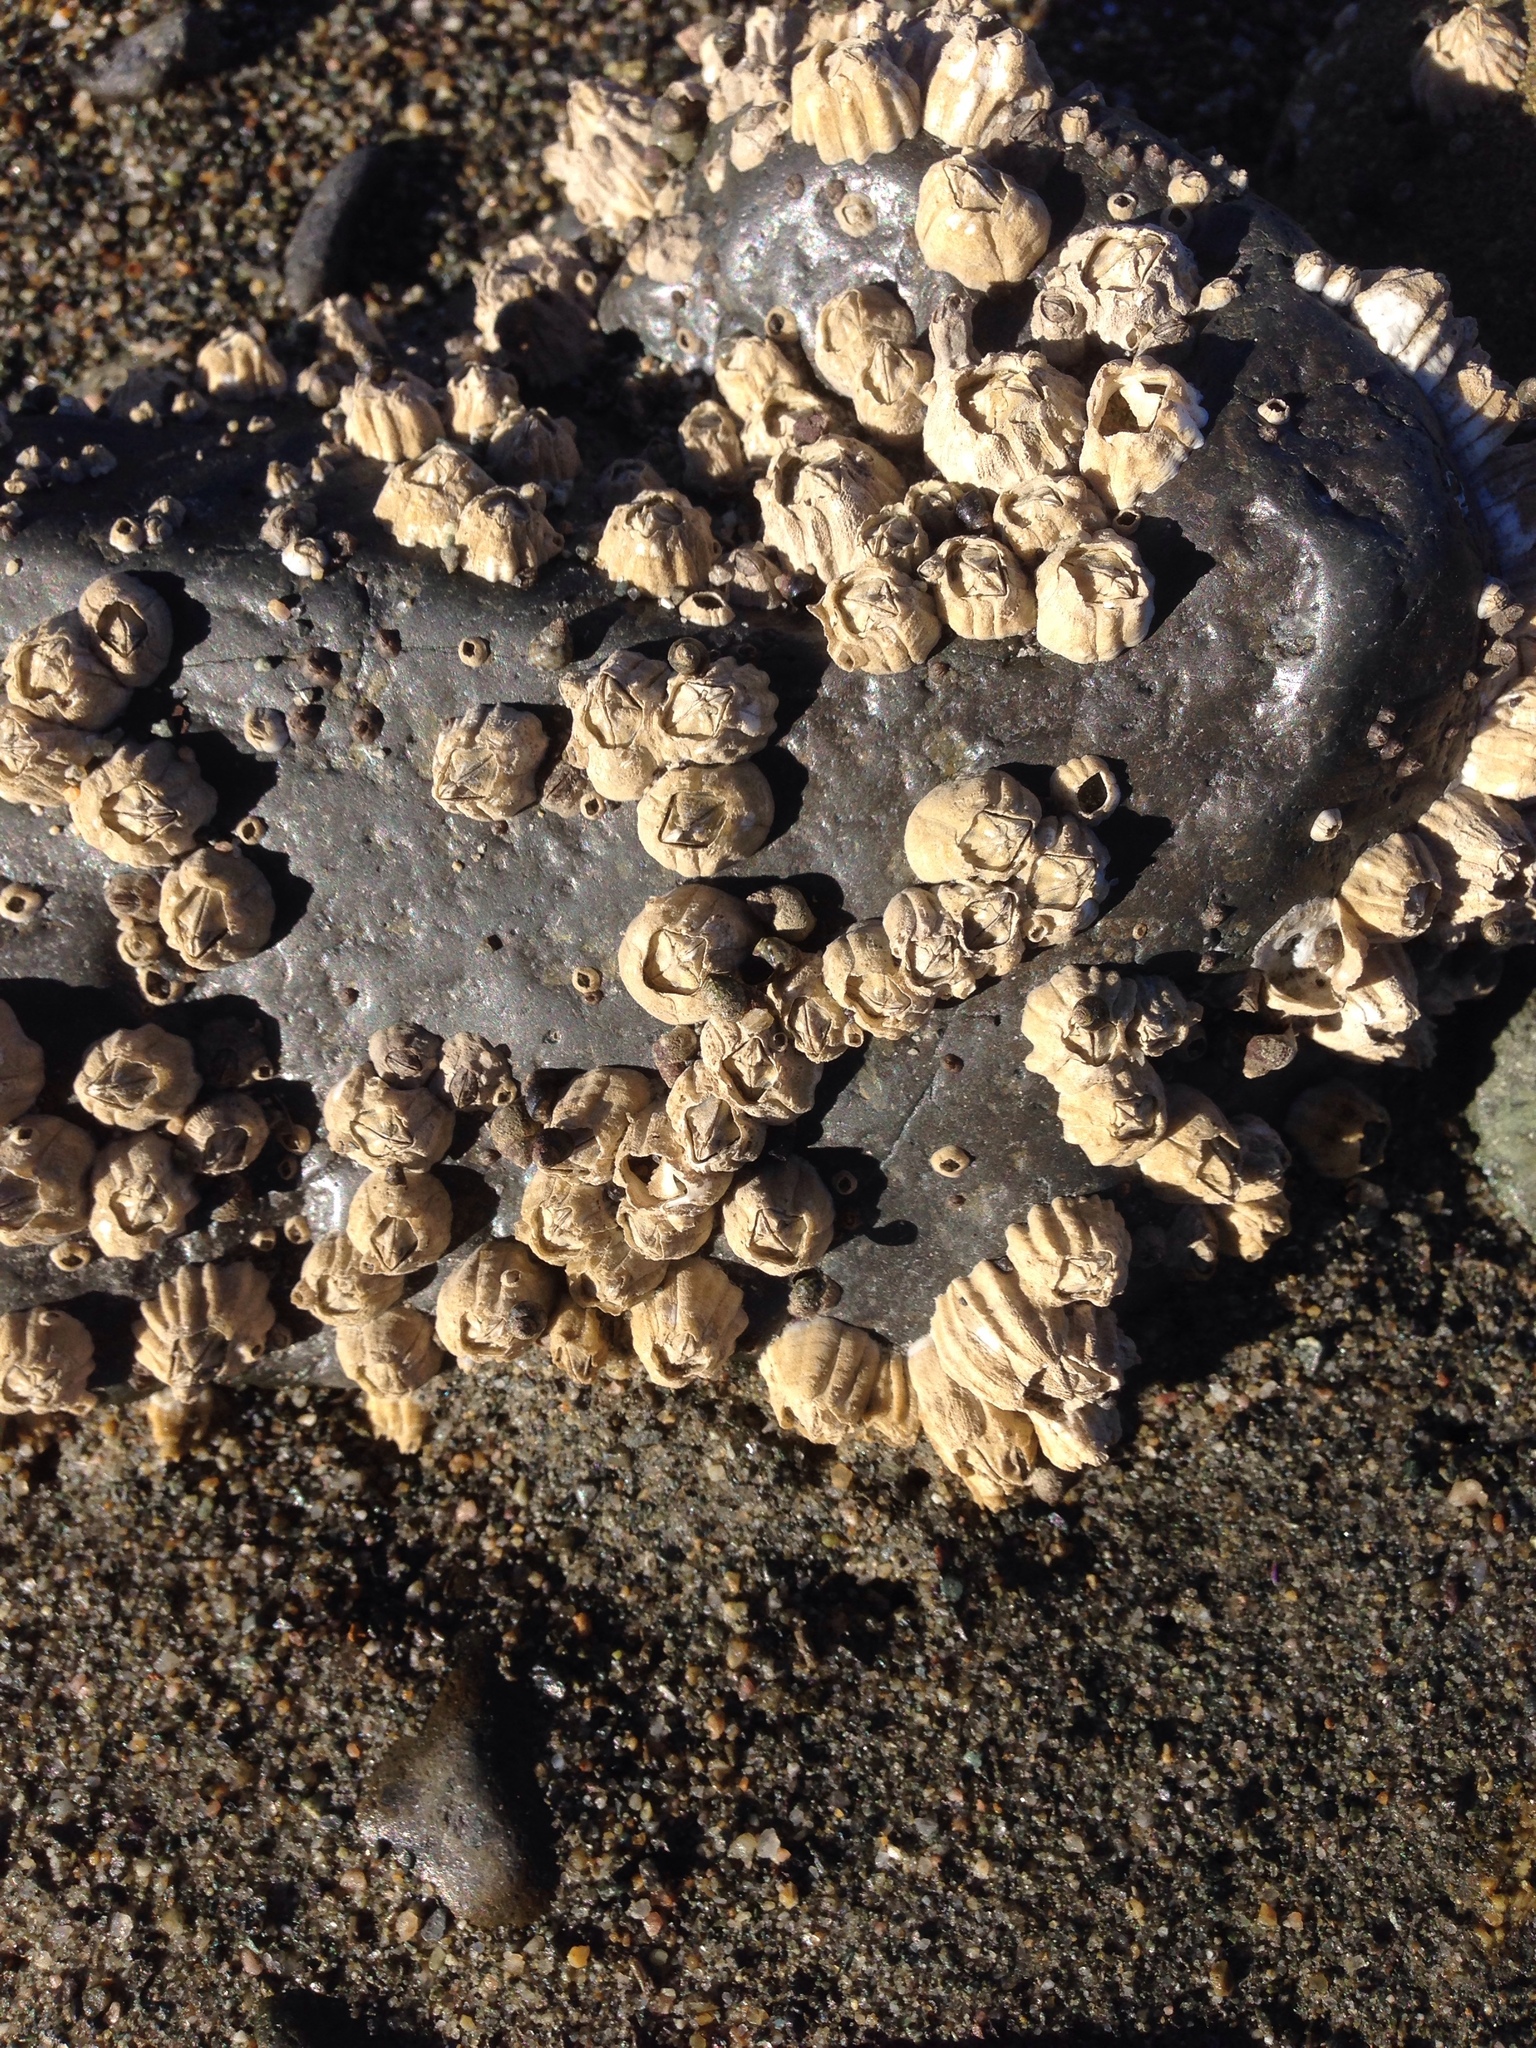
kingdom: Animalia
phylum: Arthropoda
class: Maxillopoda
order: Sessilia
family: Balanidae
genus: Balanus
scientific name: Balanus glandula
